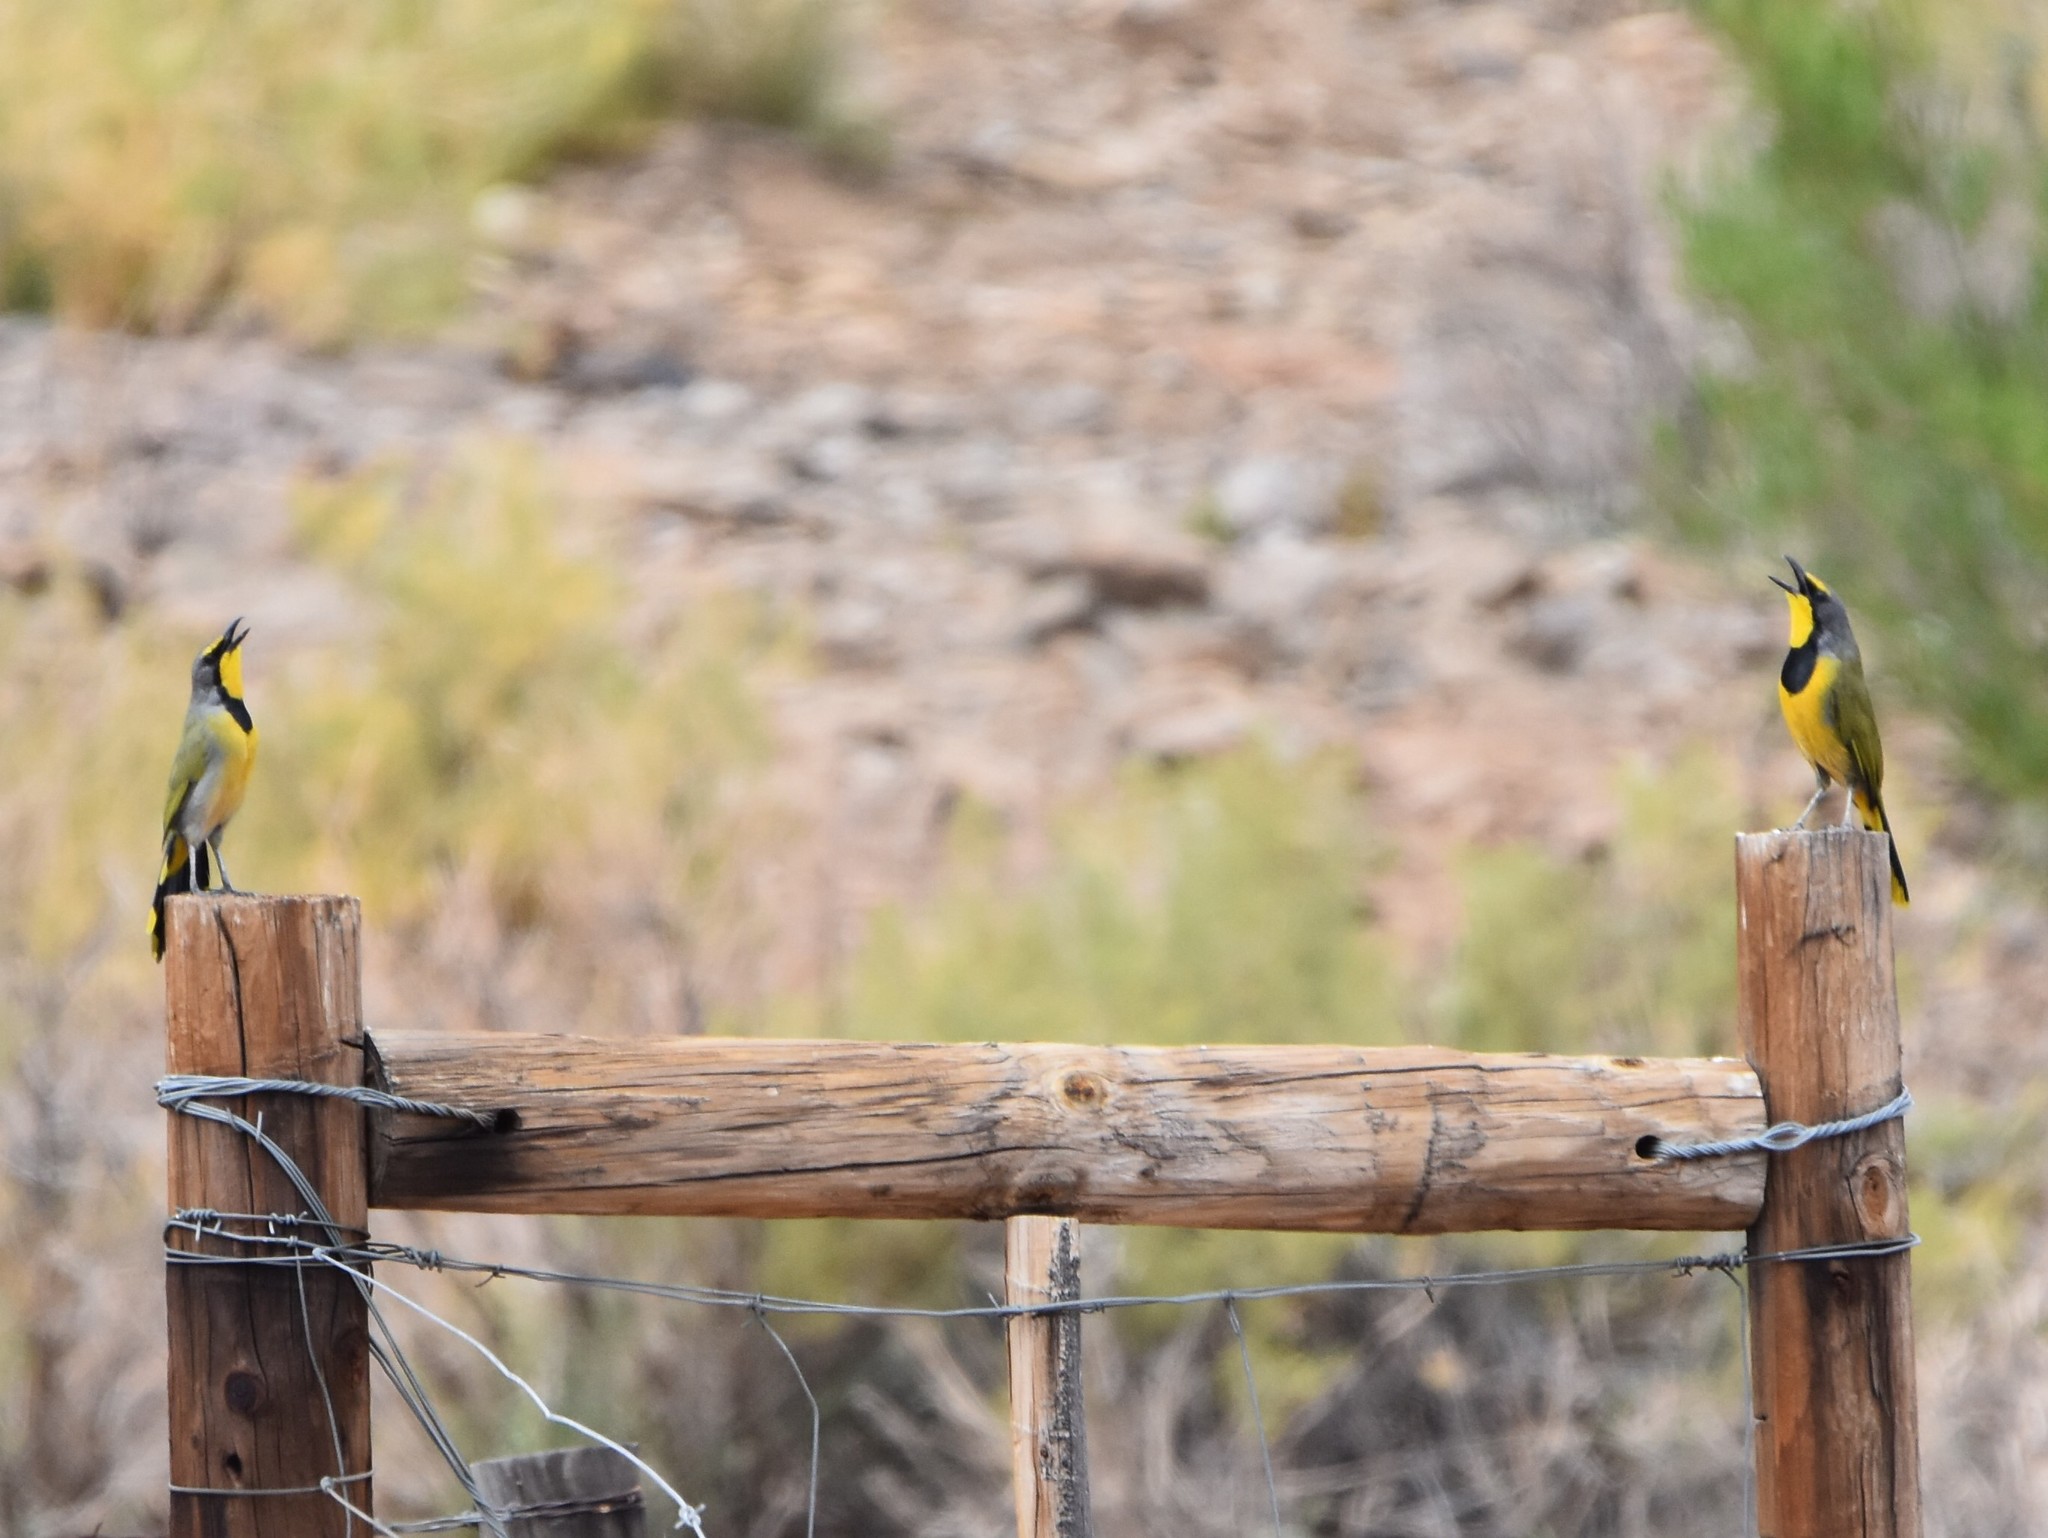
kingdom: Animalia
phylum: Chordata
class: Aves
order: Passeriformes
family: Malaconotidae
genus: Telophorus
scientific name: Telophorus zeylonus
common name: Bokmakierie
